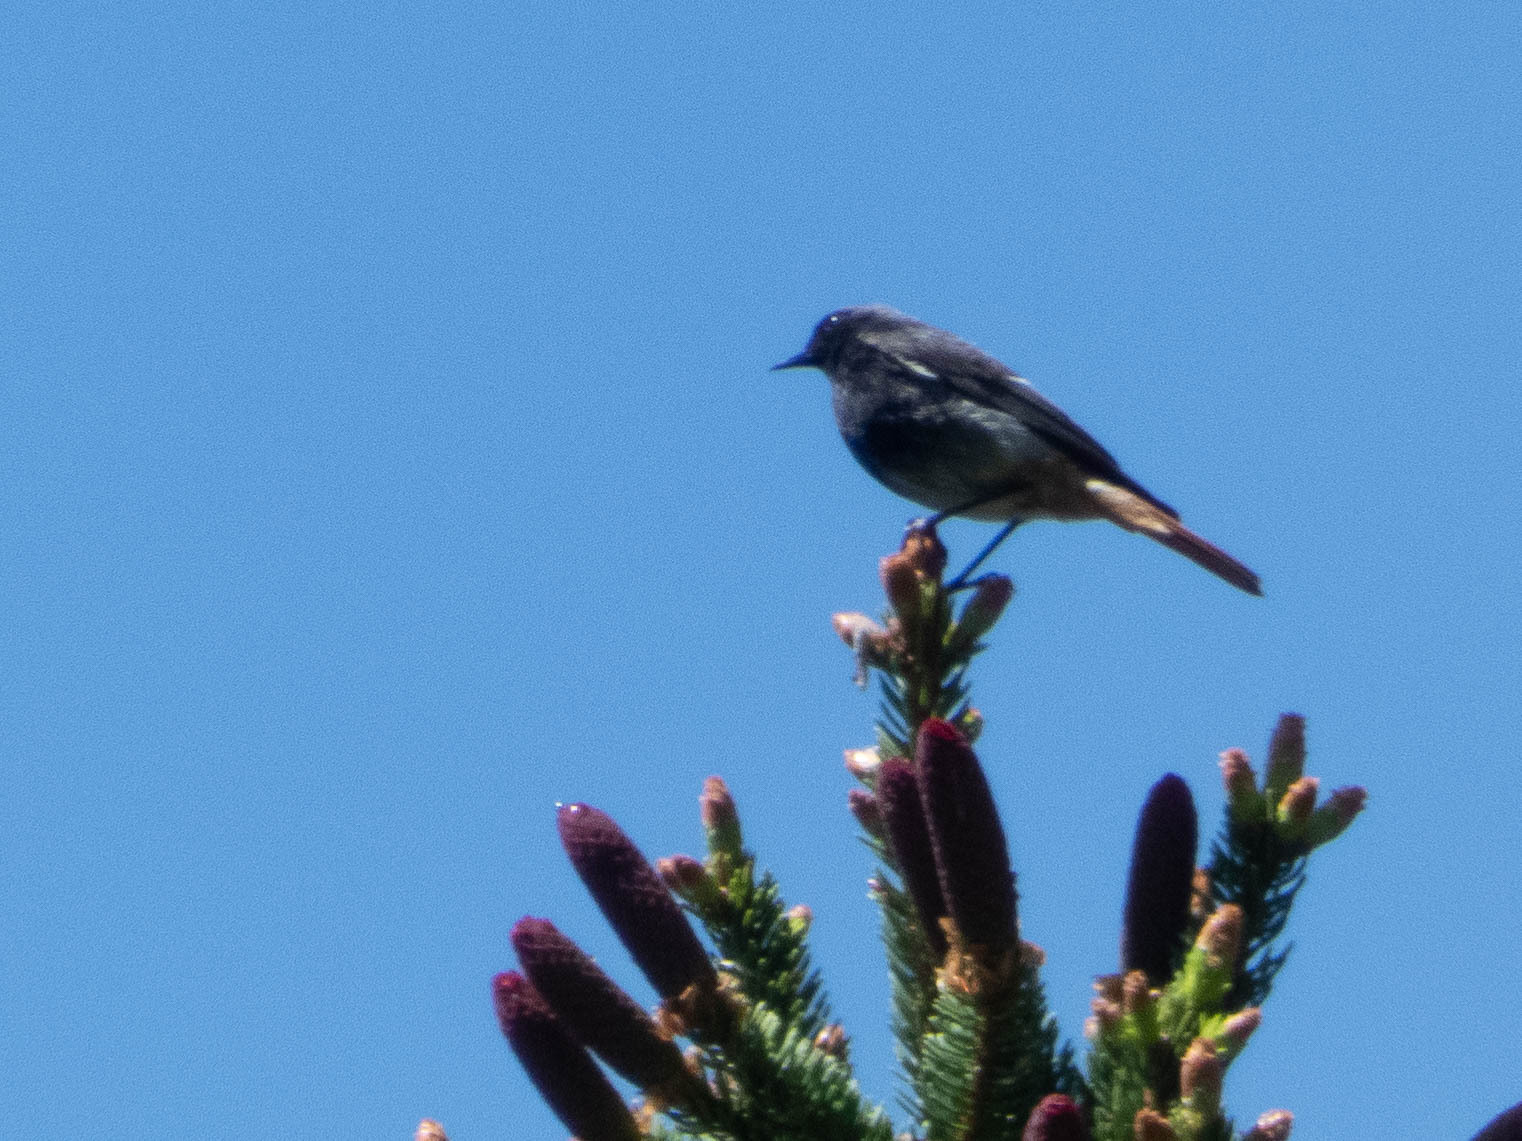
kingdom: Animalia
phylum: Chordata
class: Aves
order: Passeriformes
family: Muscicapidae
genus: Phoenicurus
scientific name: Phoenicurus ochruros
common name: Black redstart
